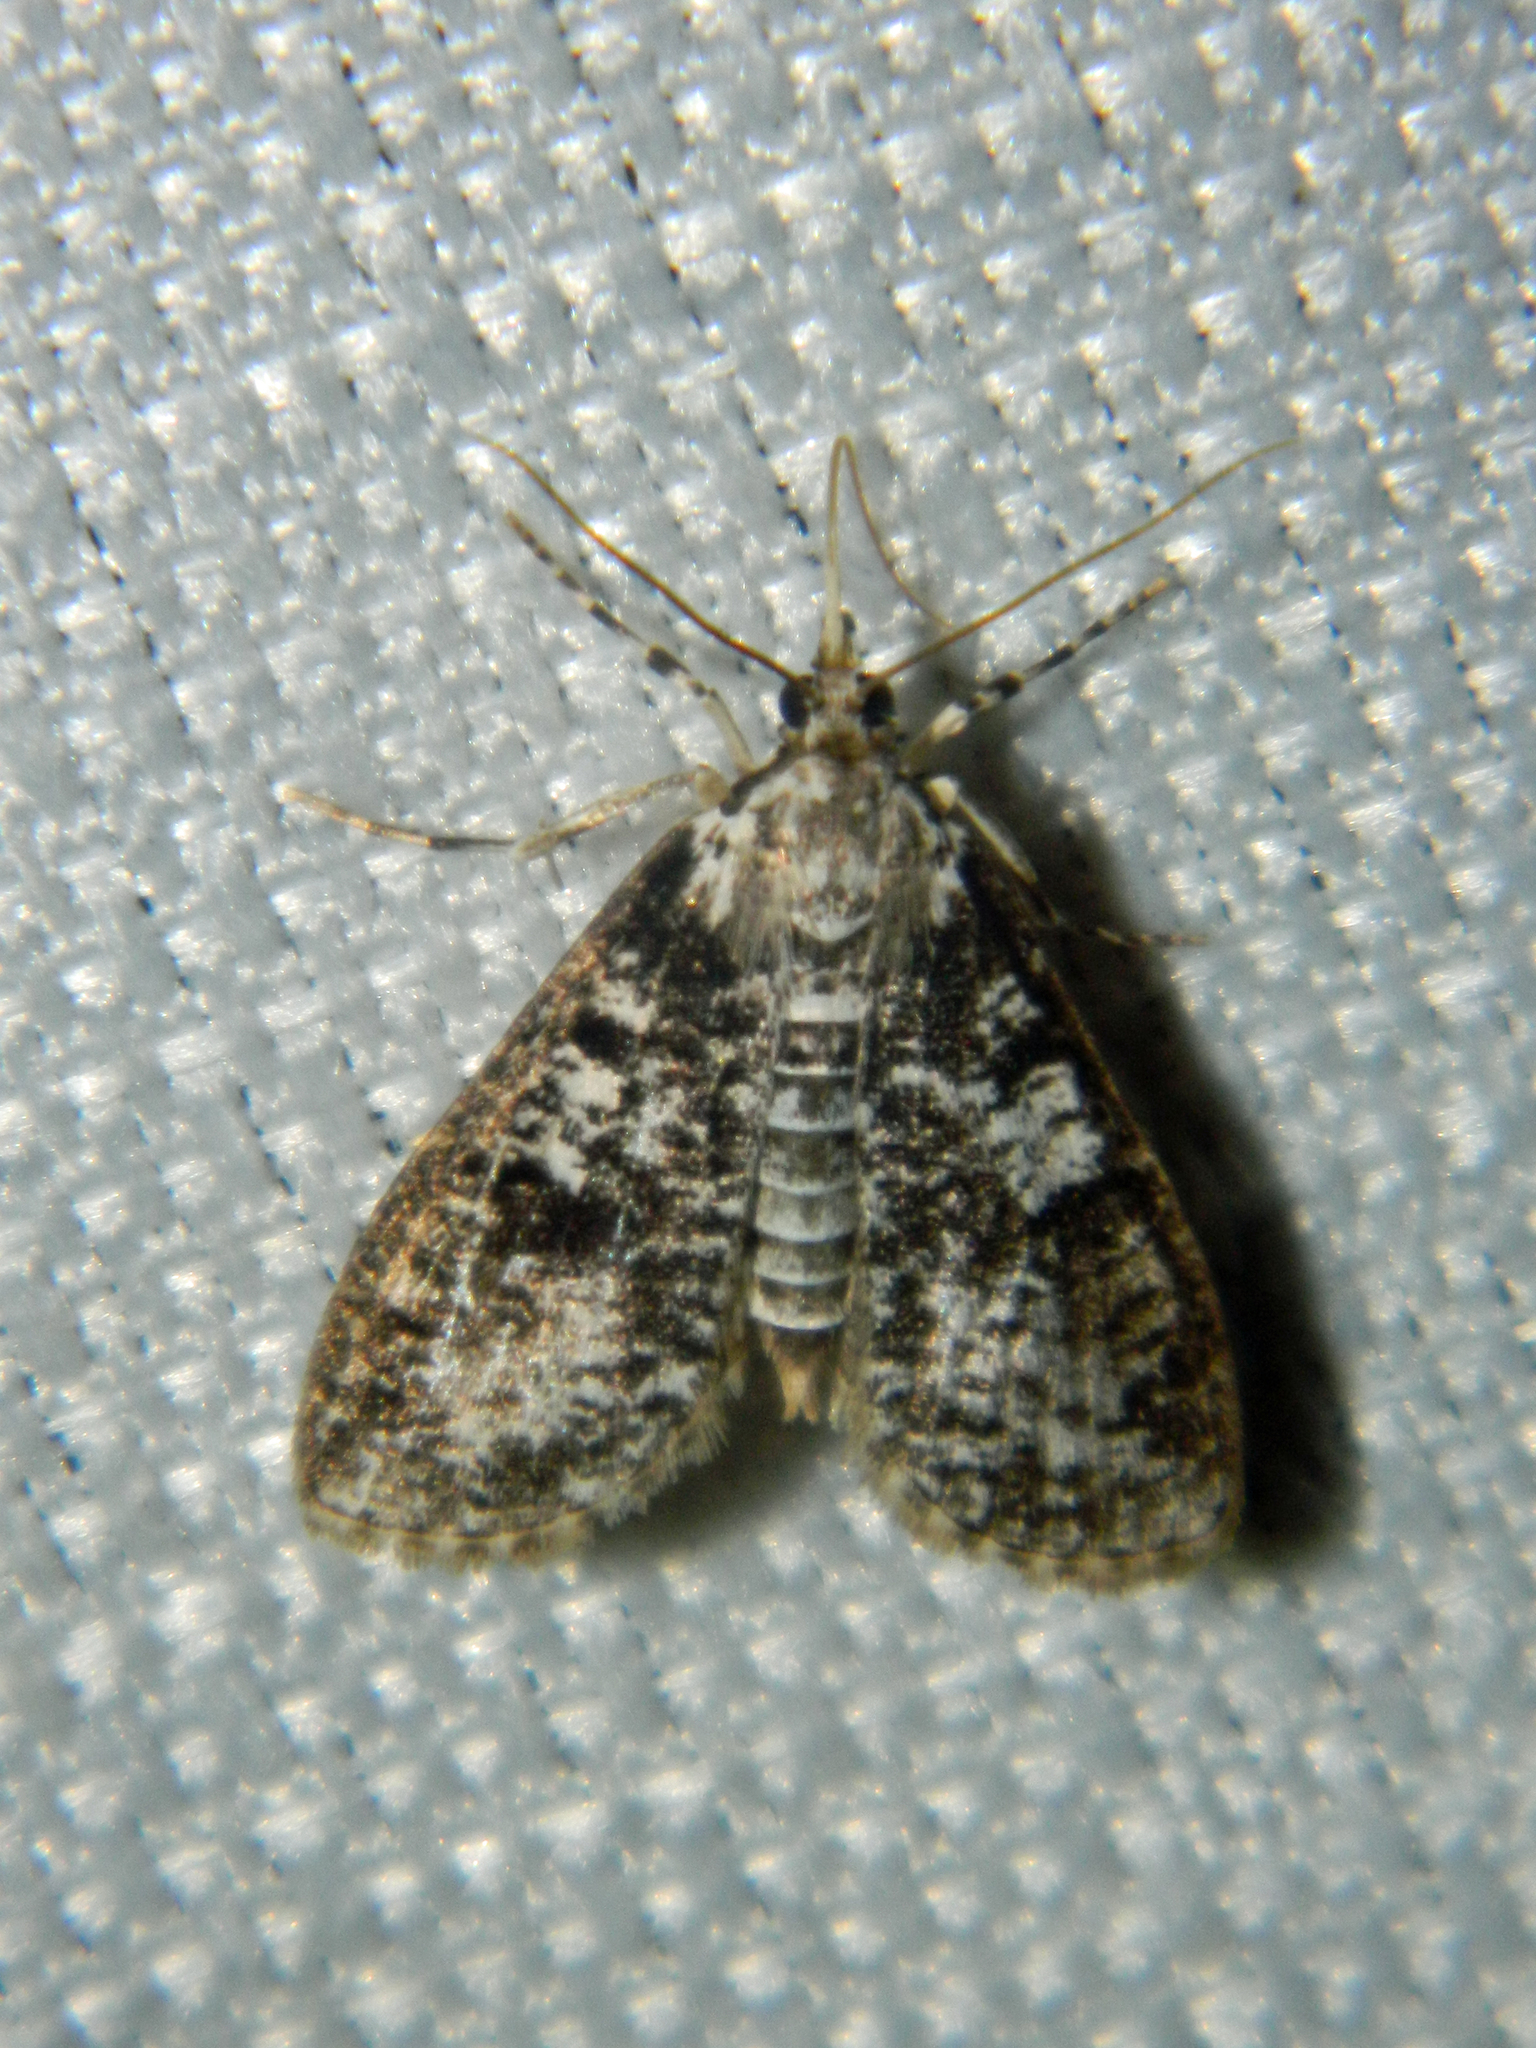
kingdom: Animalia
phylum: Arthropoda
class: Insecta
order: Lepidoptera
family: Crambidae
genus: Palpita
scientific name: Palpita magniferalis
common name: Splendid palpita moth
